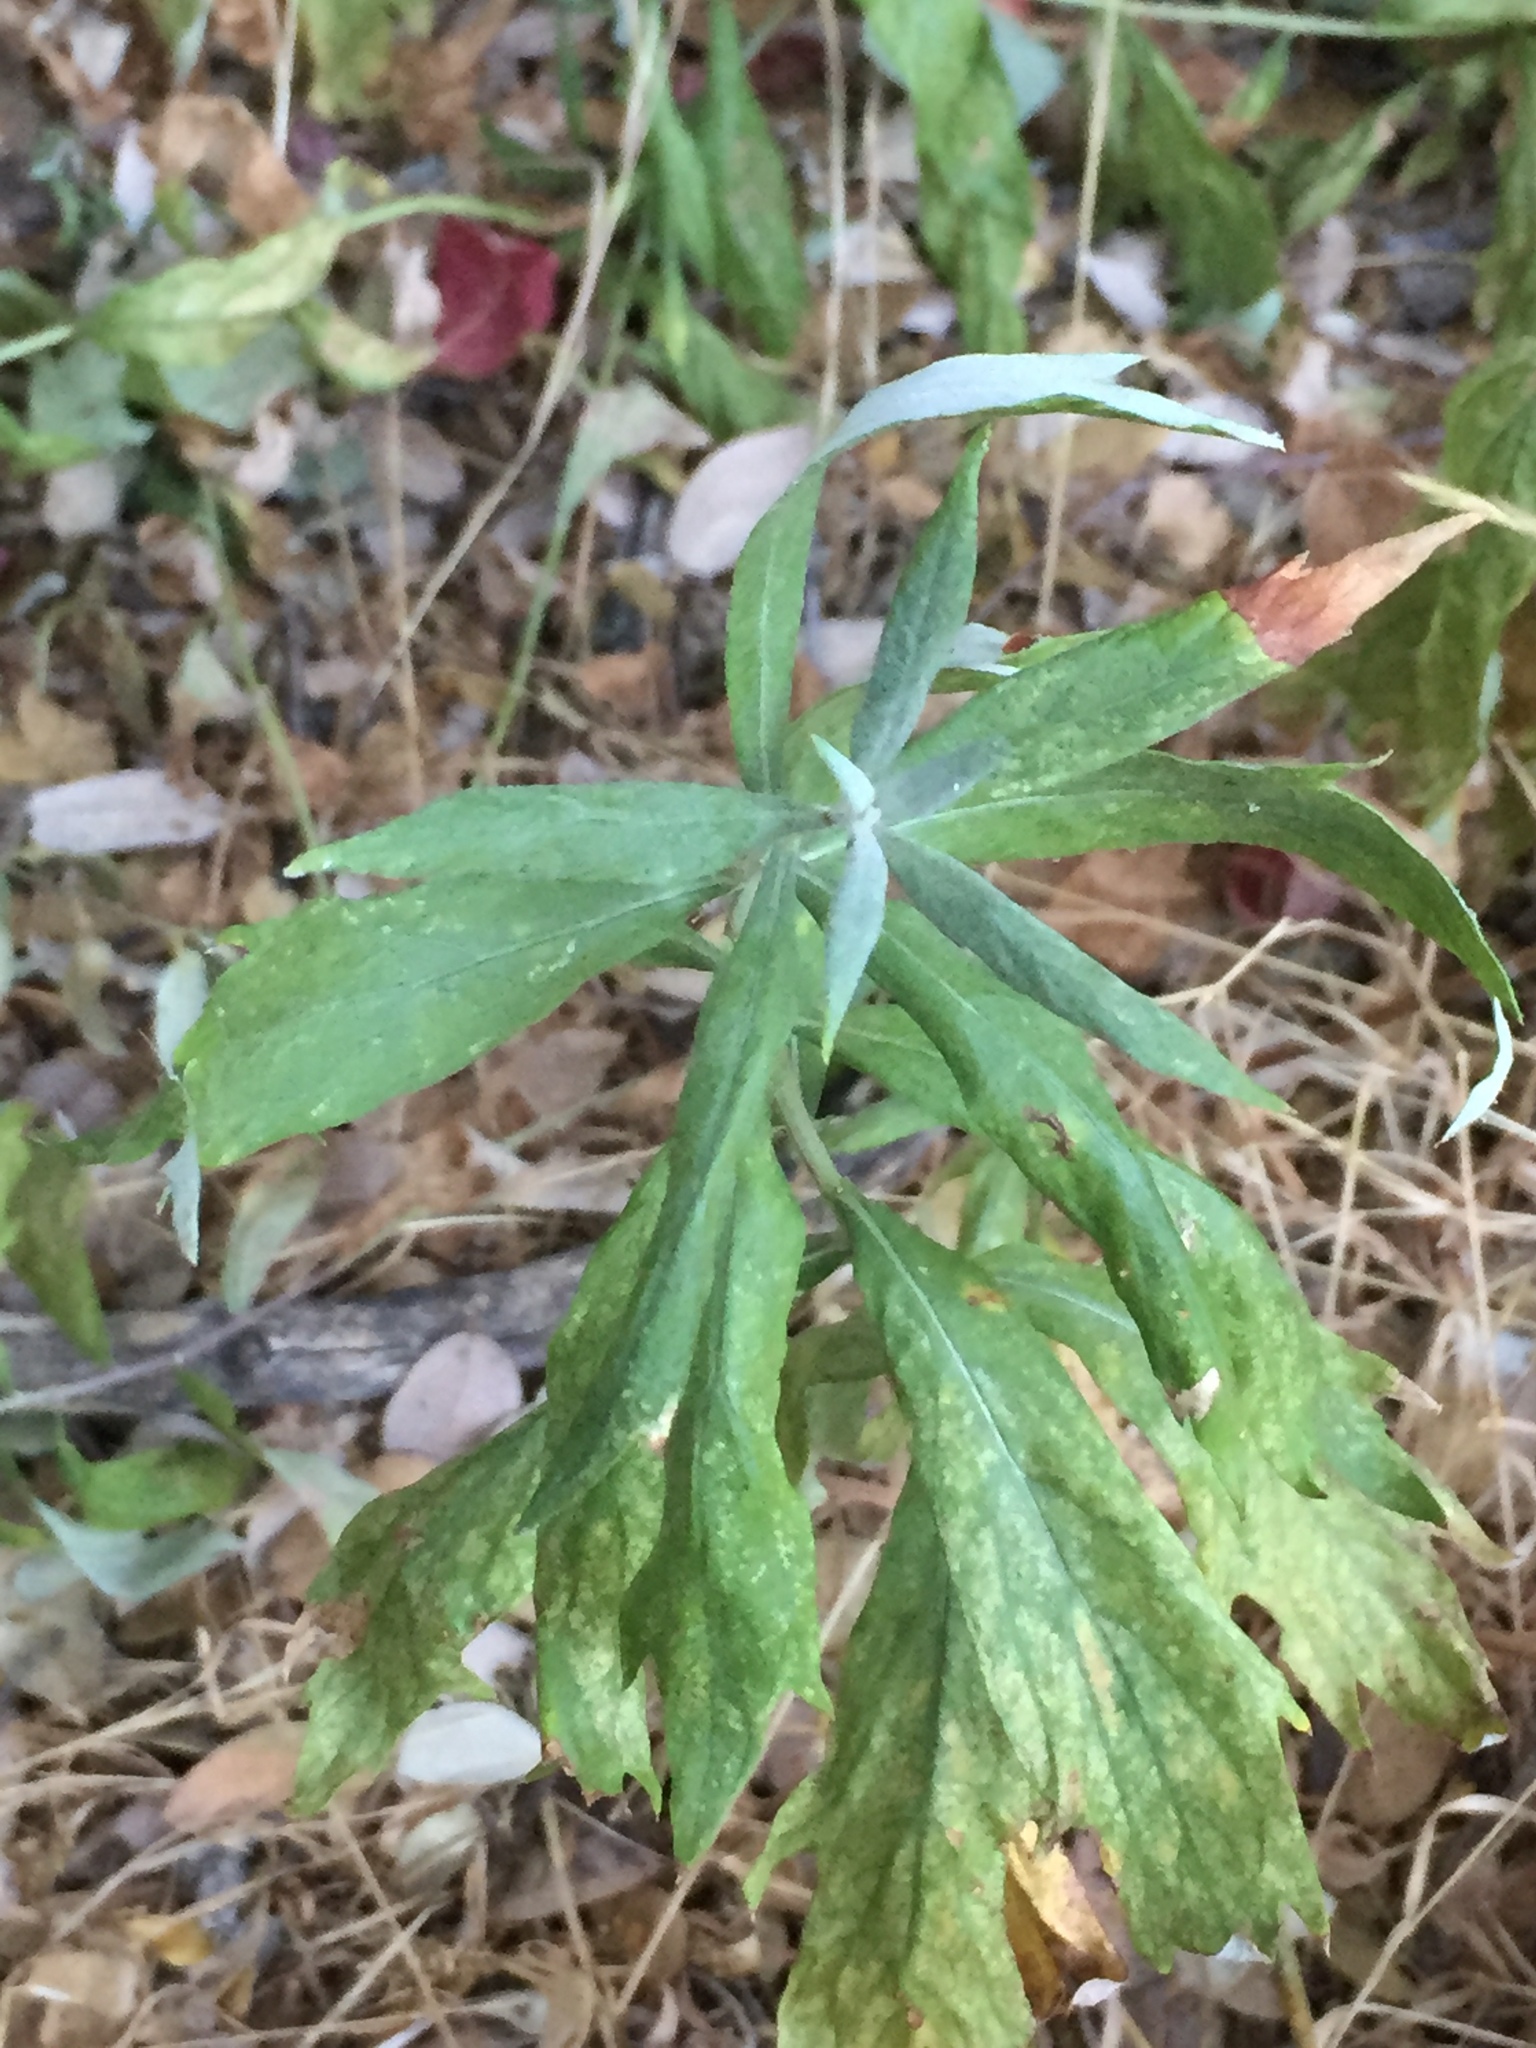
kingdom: Plantae
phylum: Tracheophyta
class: Magnoliopsida
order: Asterales
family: Asteraceae
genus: Artemisia
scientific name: Artemisia douglasiana
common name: Northwest mugwort
